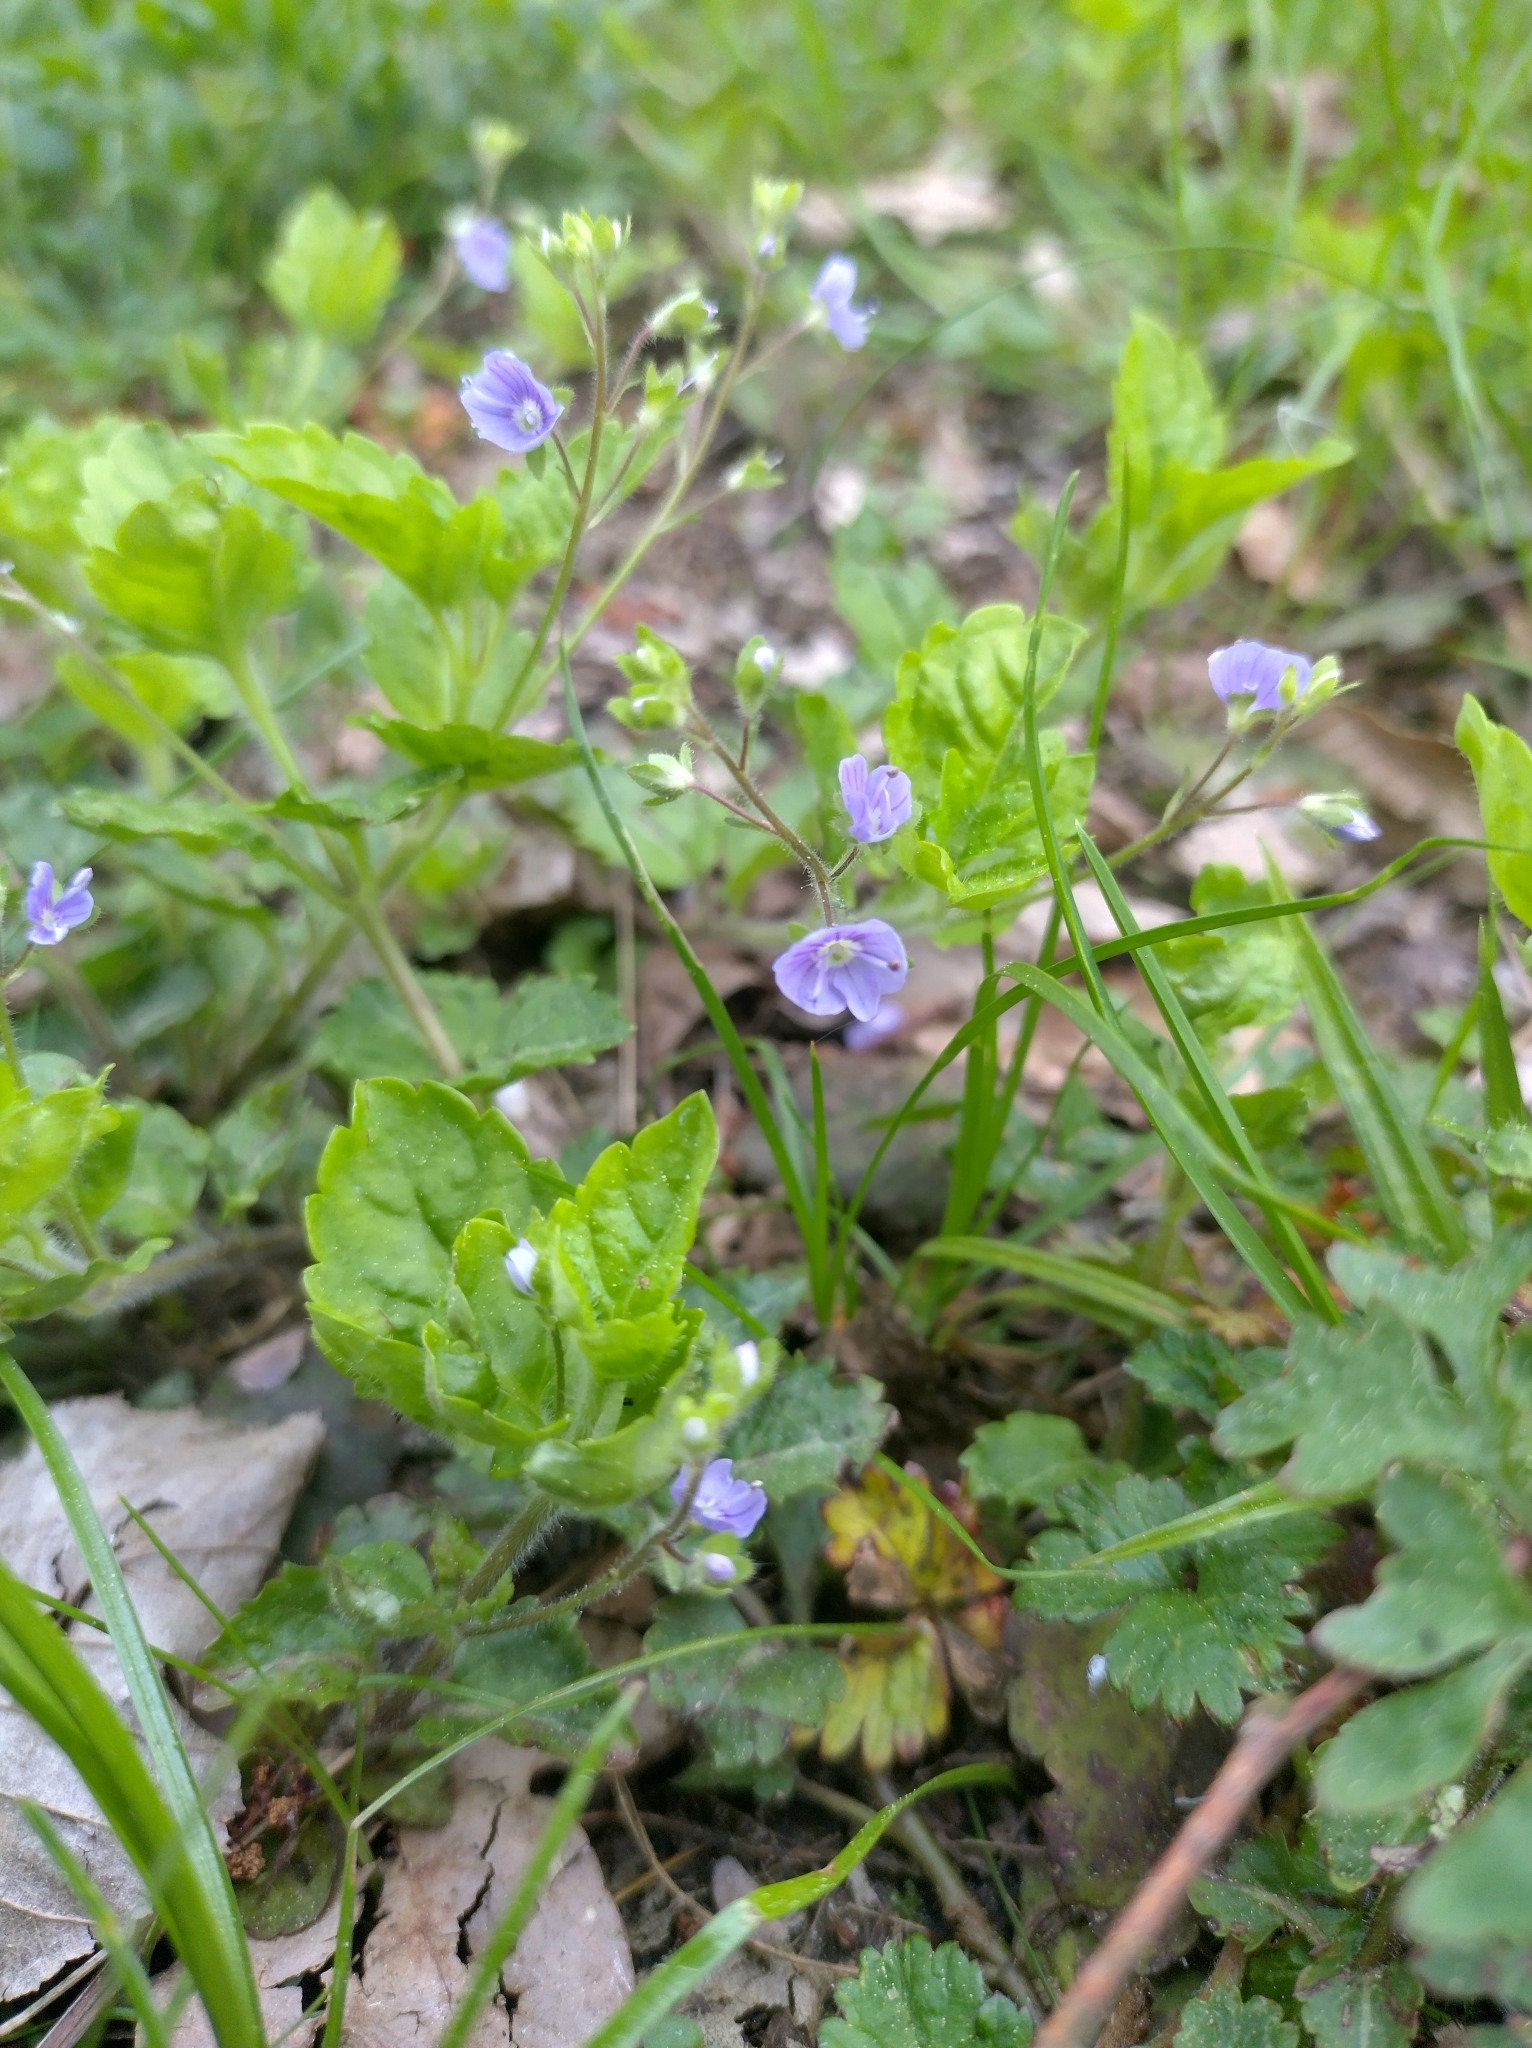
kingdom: Plantae
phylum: Tracheophyta
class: Magnoliopsida
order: Lamiales
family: Plantaginaceae
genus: Veronica
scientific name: Veronica montana
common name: Wood speedwell
